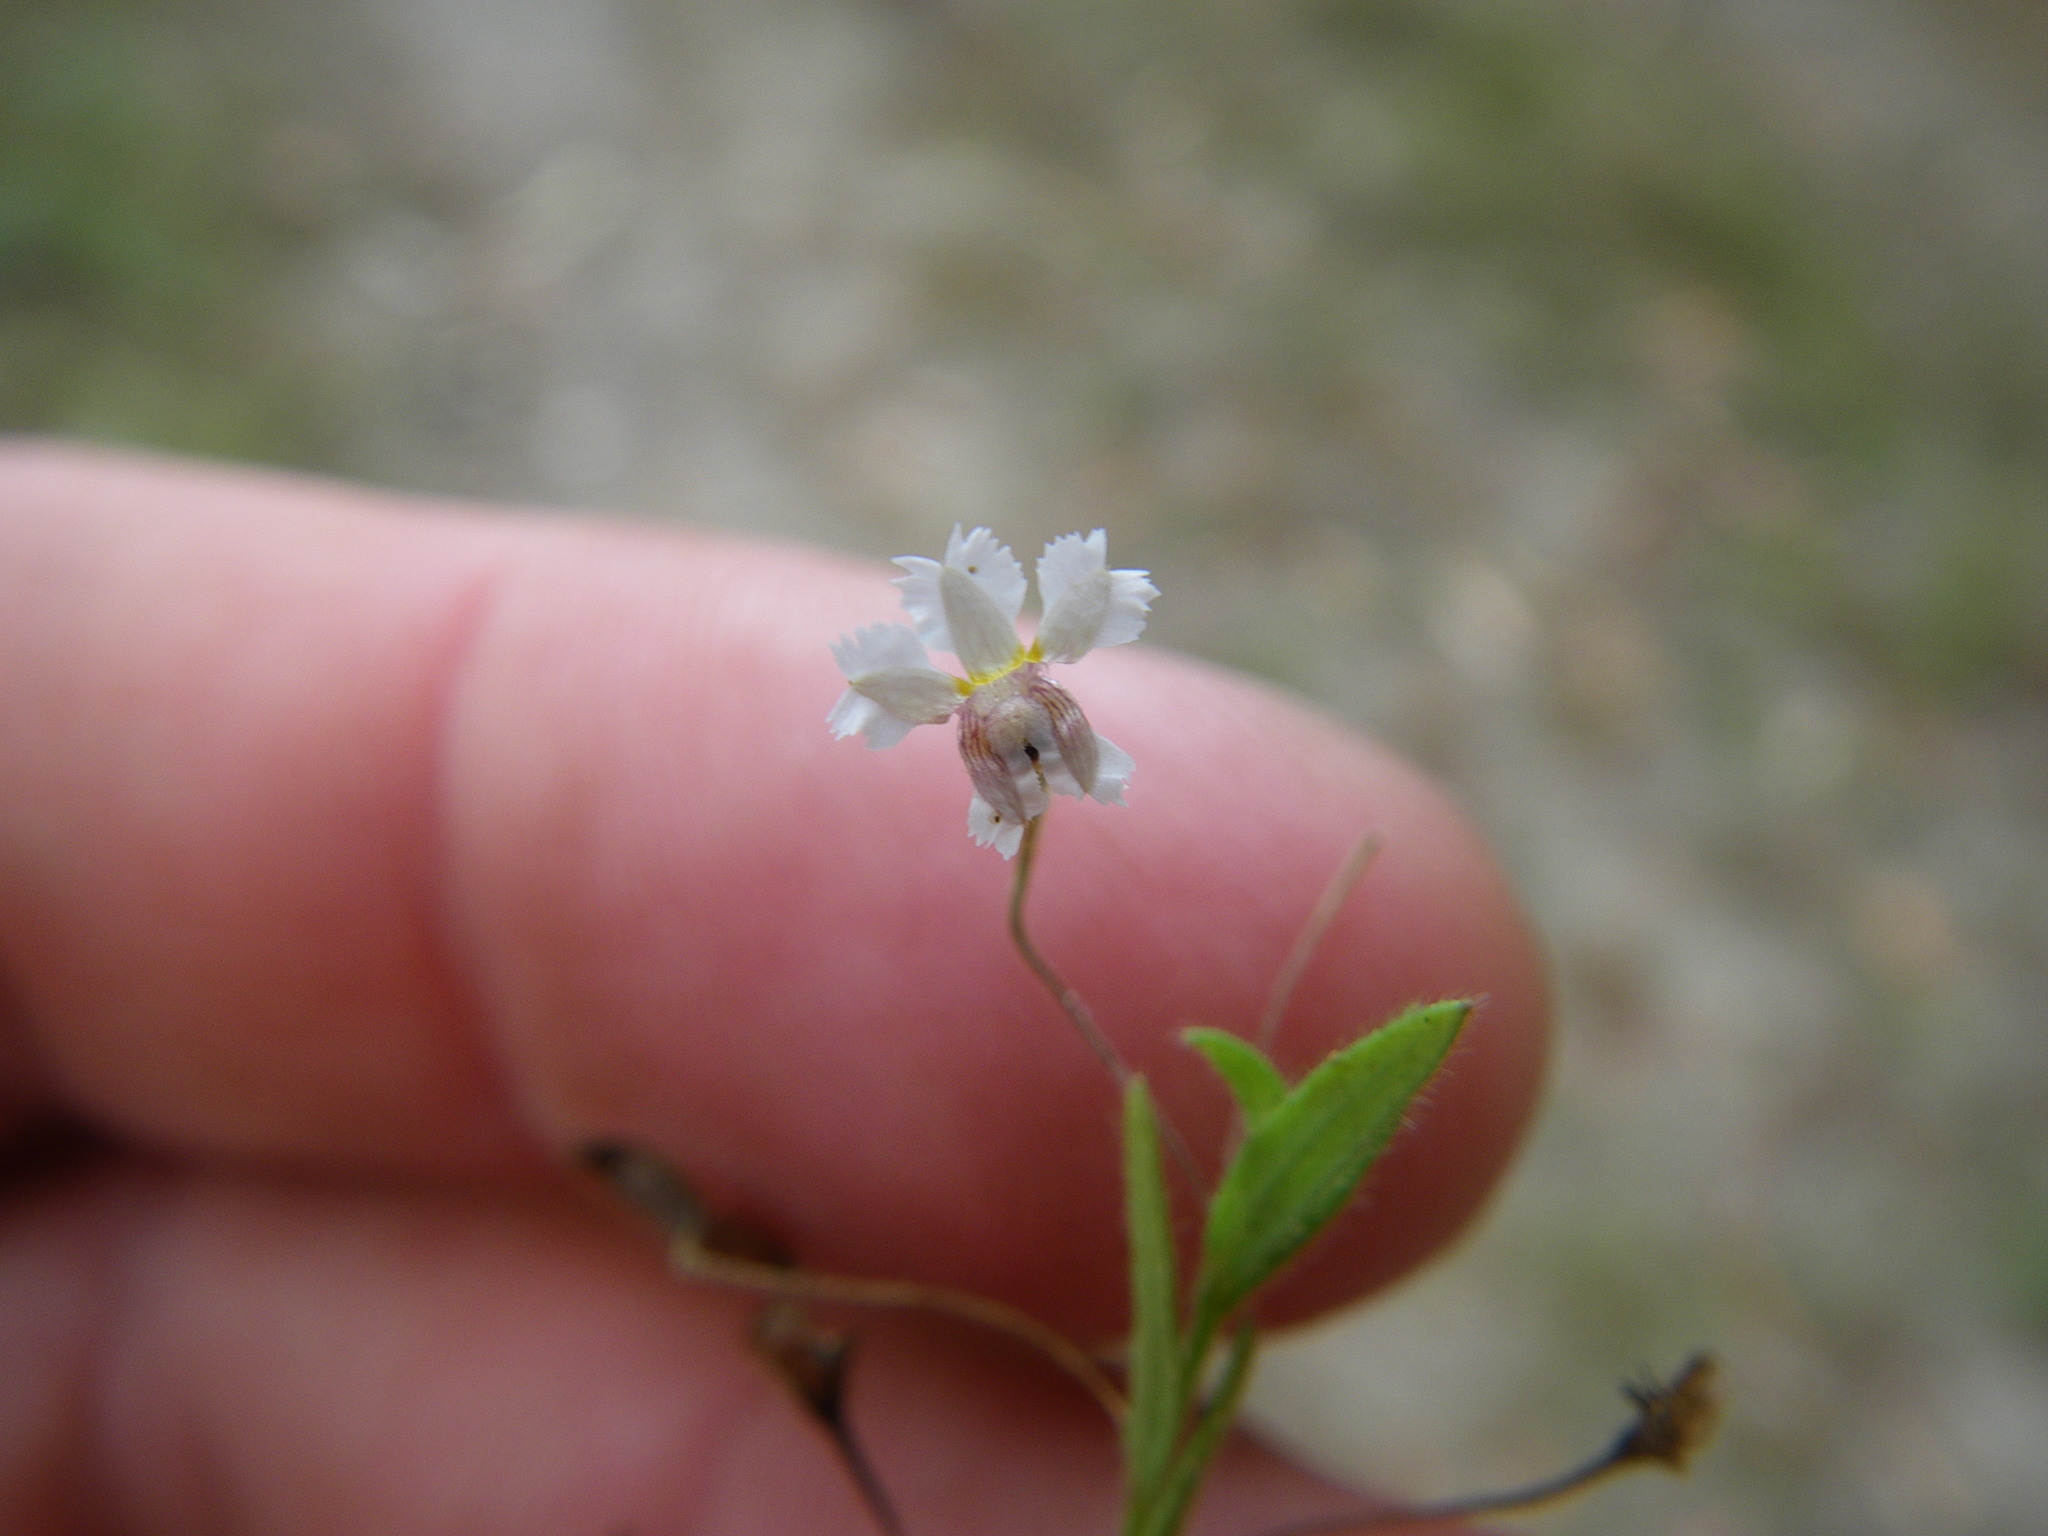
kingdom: Plantae
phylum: Tracheophyta
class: Magnoliopsida
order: Asterales
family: Goodeniaceae
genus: Goodenia
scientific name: Goodenia armstrongiana
